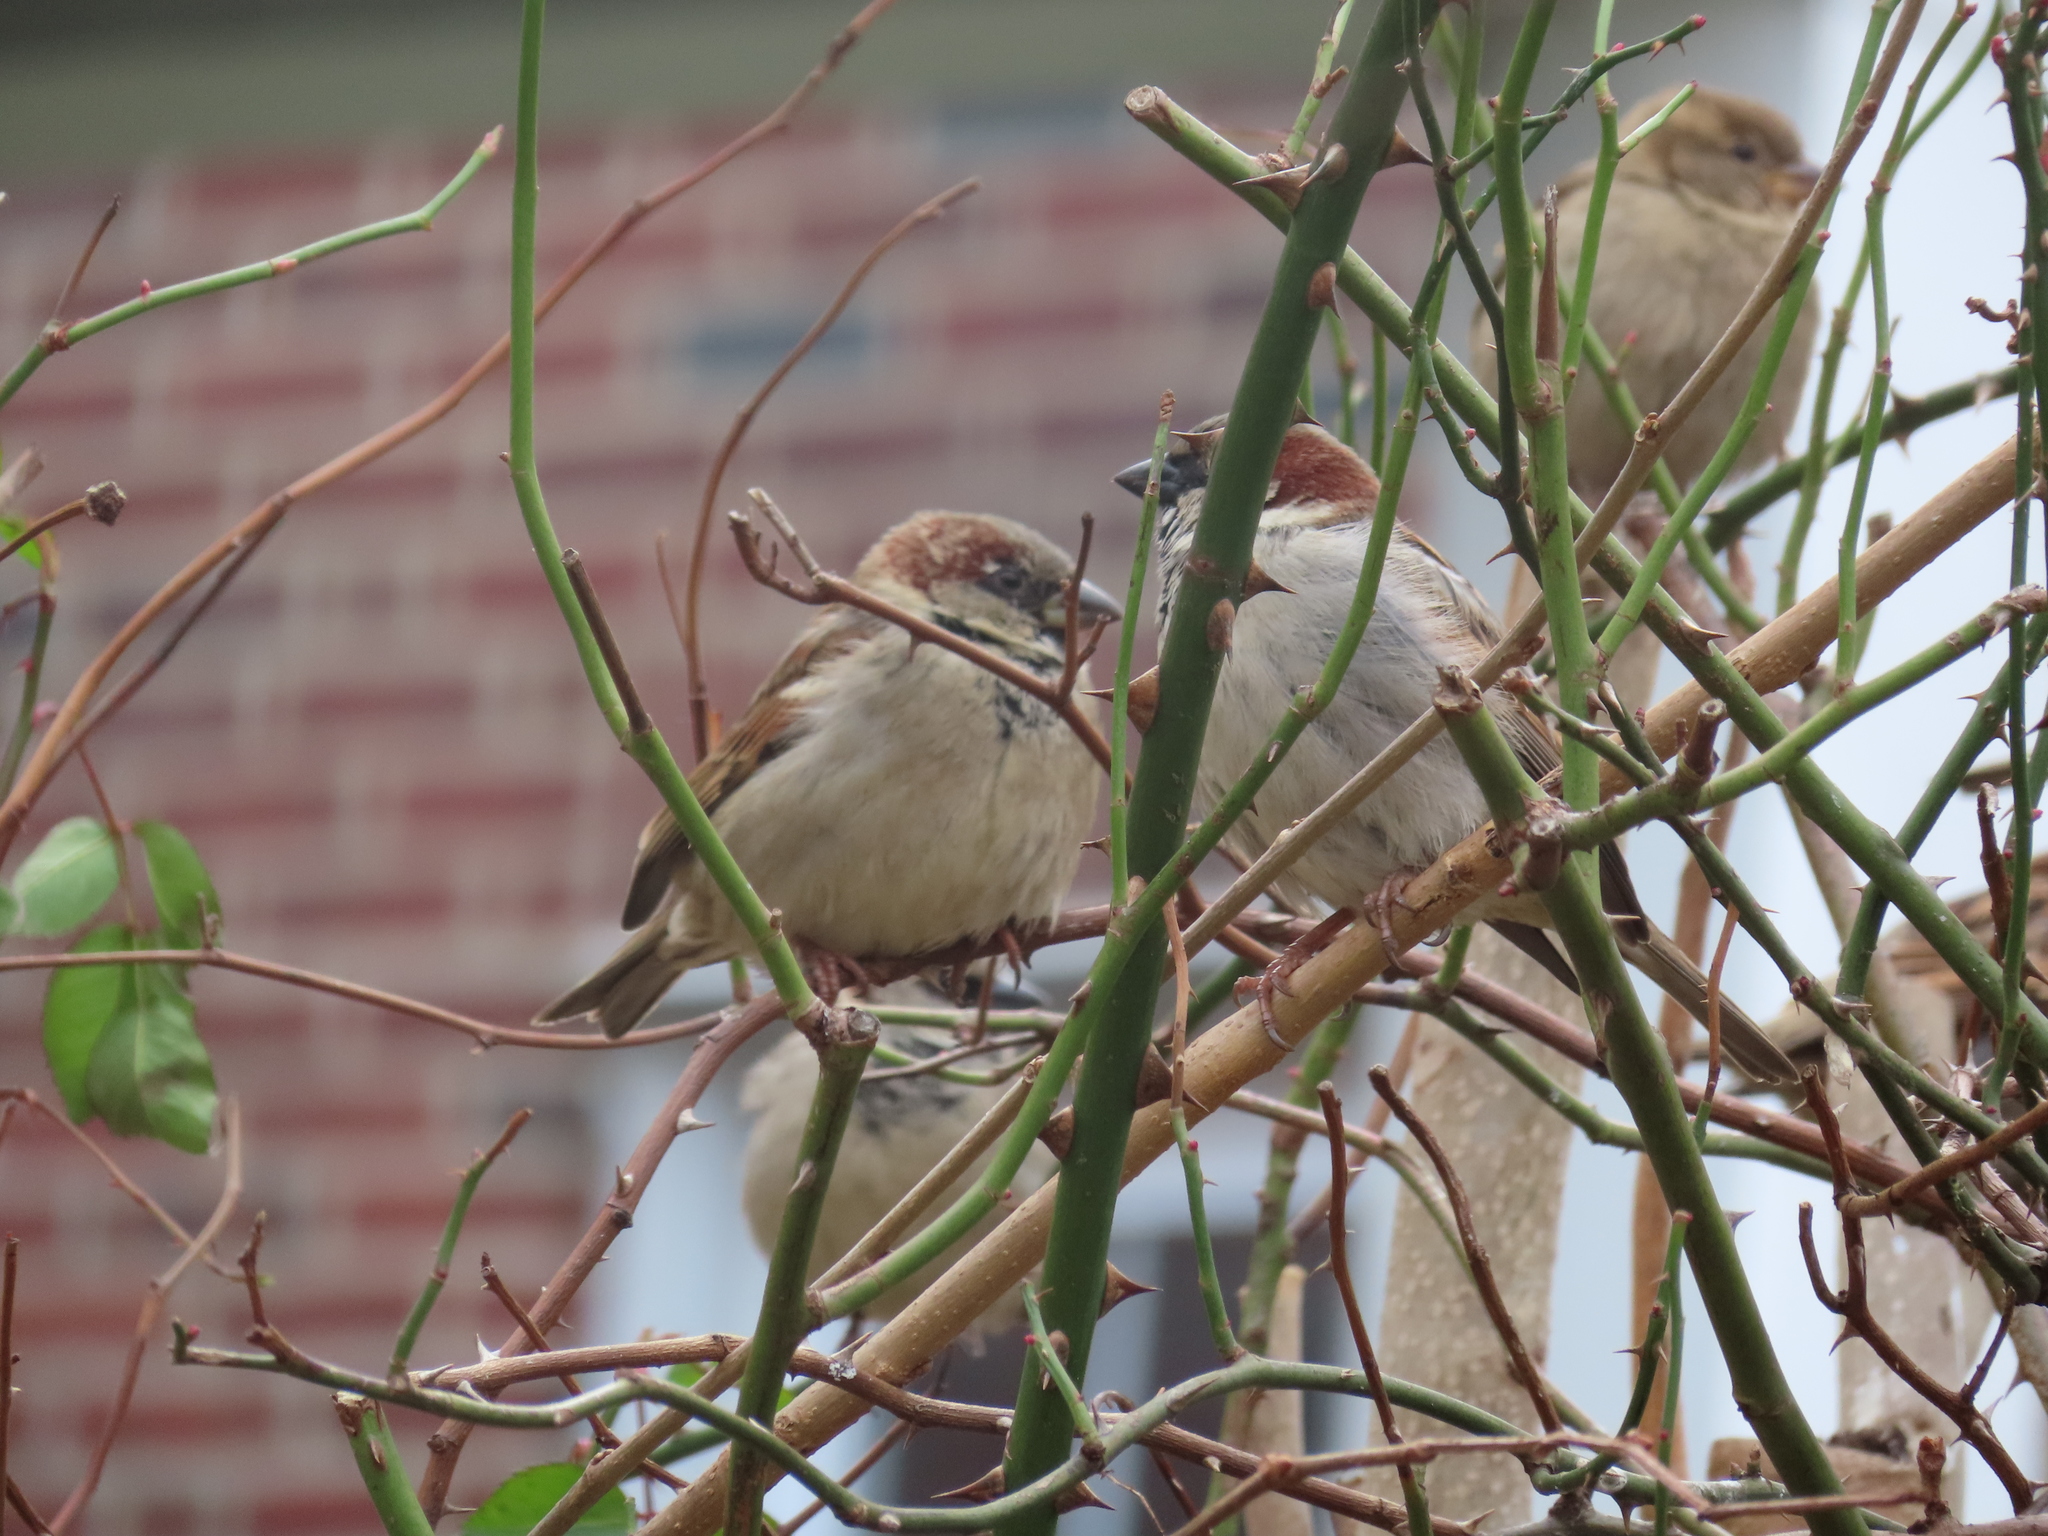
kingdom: Animalia
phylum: Chordata
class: Aves
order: Passeriformes
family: Passeridae
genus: Passer
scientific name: Passer domesticus
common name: House sparrow
